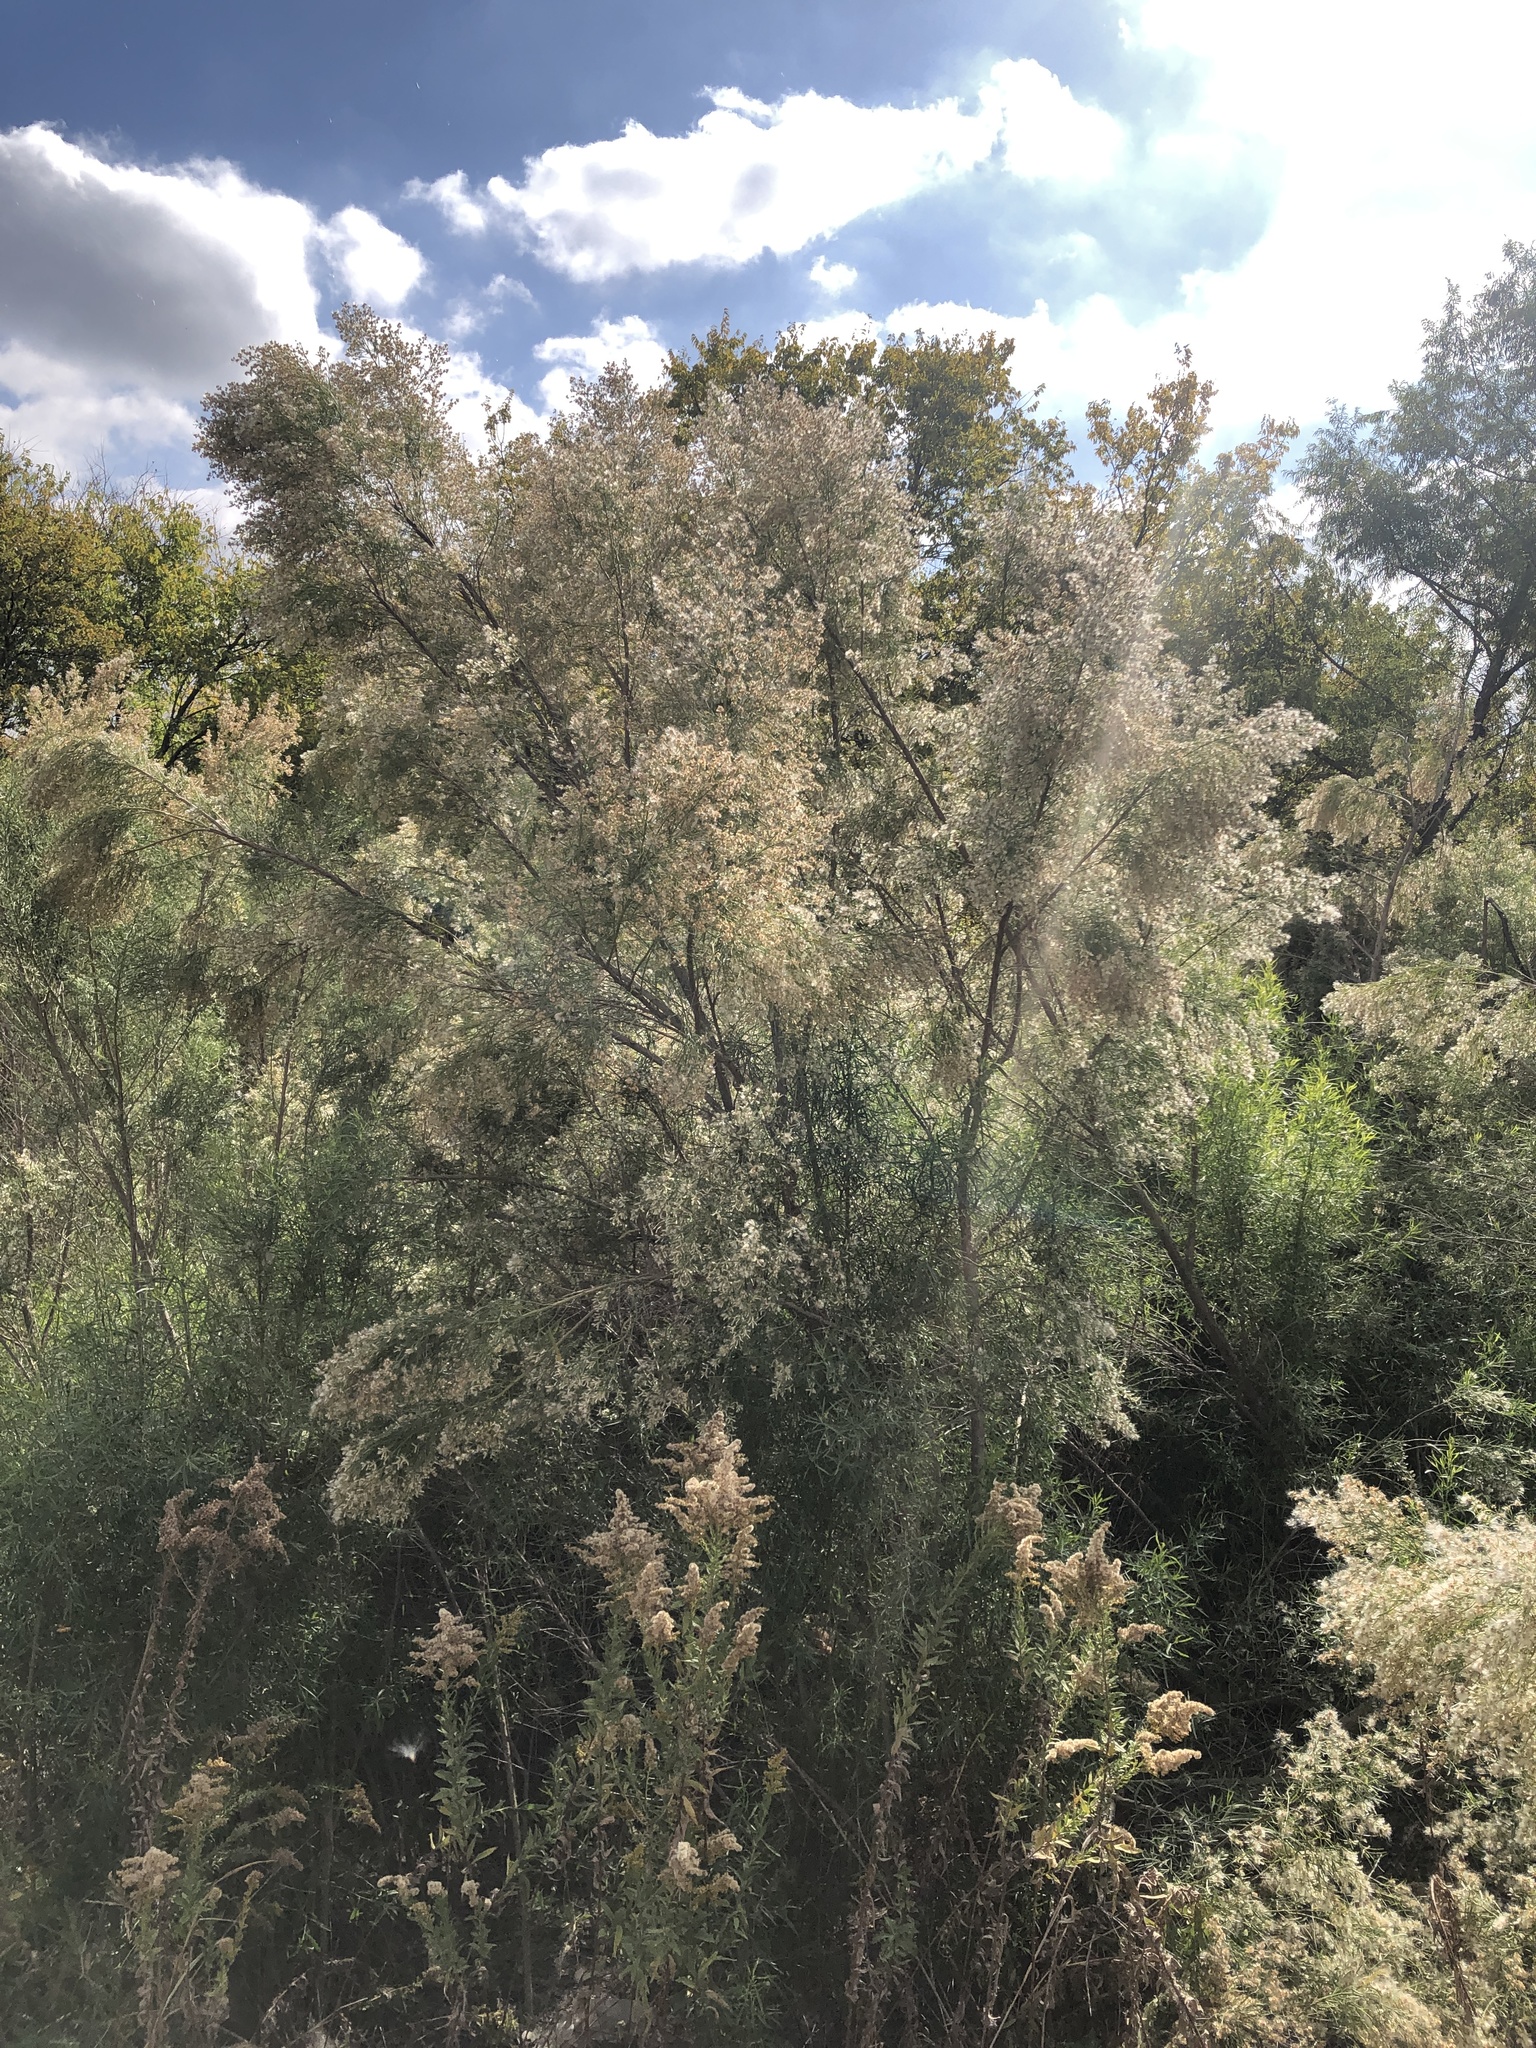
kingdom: Plantae
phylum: Tracheophyta
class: Magnoliopsida
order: Asterales
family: Asteraceae
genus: Baccharis
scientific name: Baccharis neglecta
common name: Roosevelt-weed
